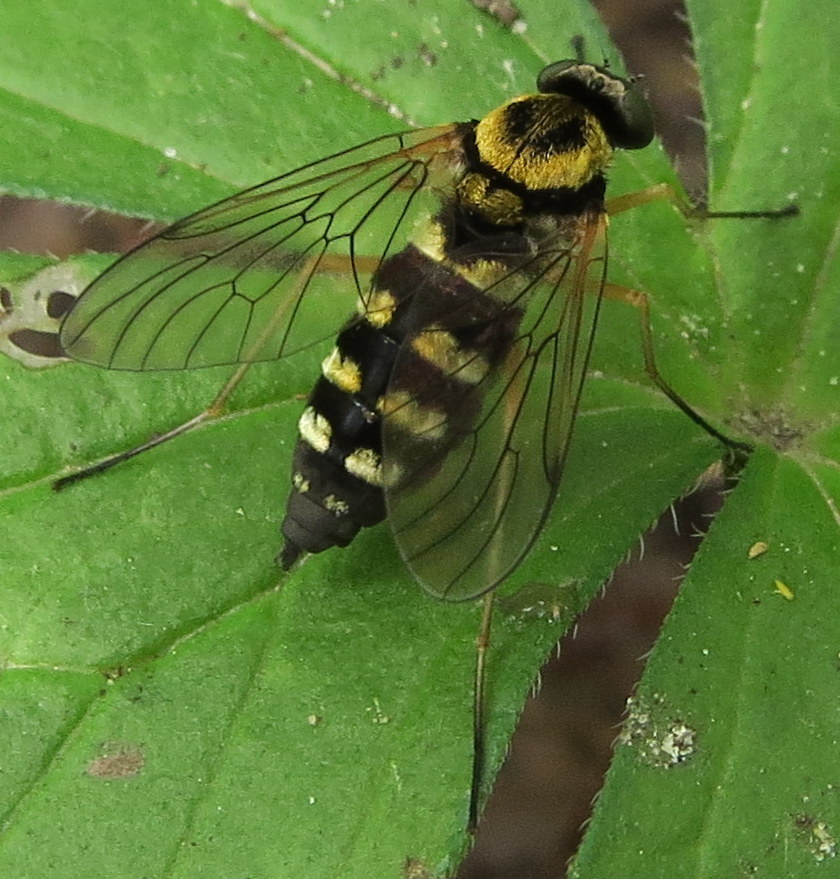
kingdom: Animalia
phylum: Arthropoda
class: Insecta
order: Diptera
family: Rhagionidae
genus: Chrysopilus
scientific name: Chrysopilus ornatus
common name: Ornate snipe fly
